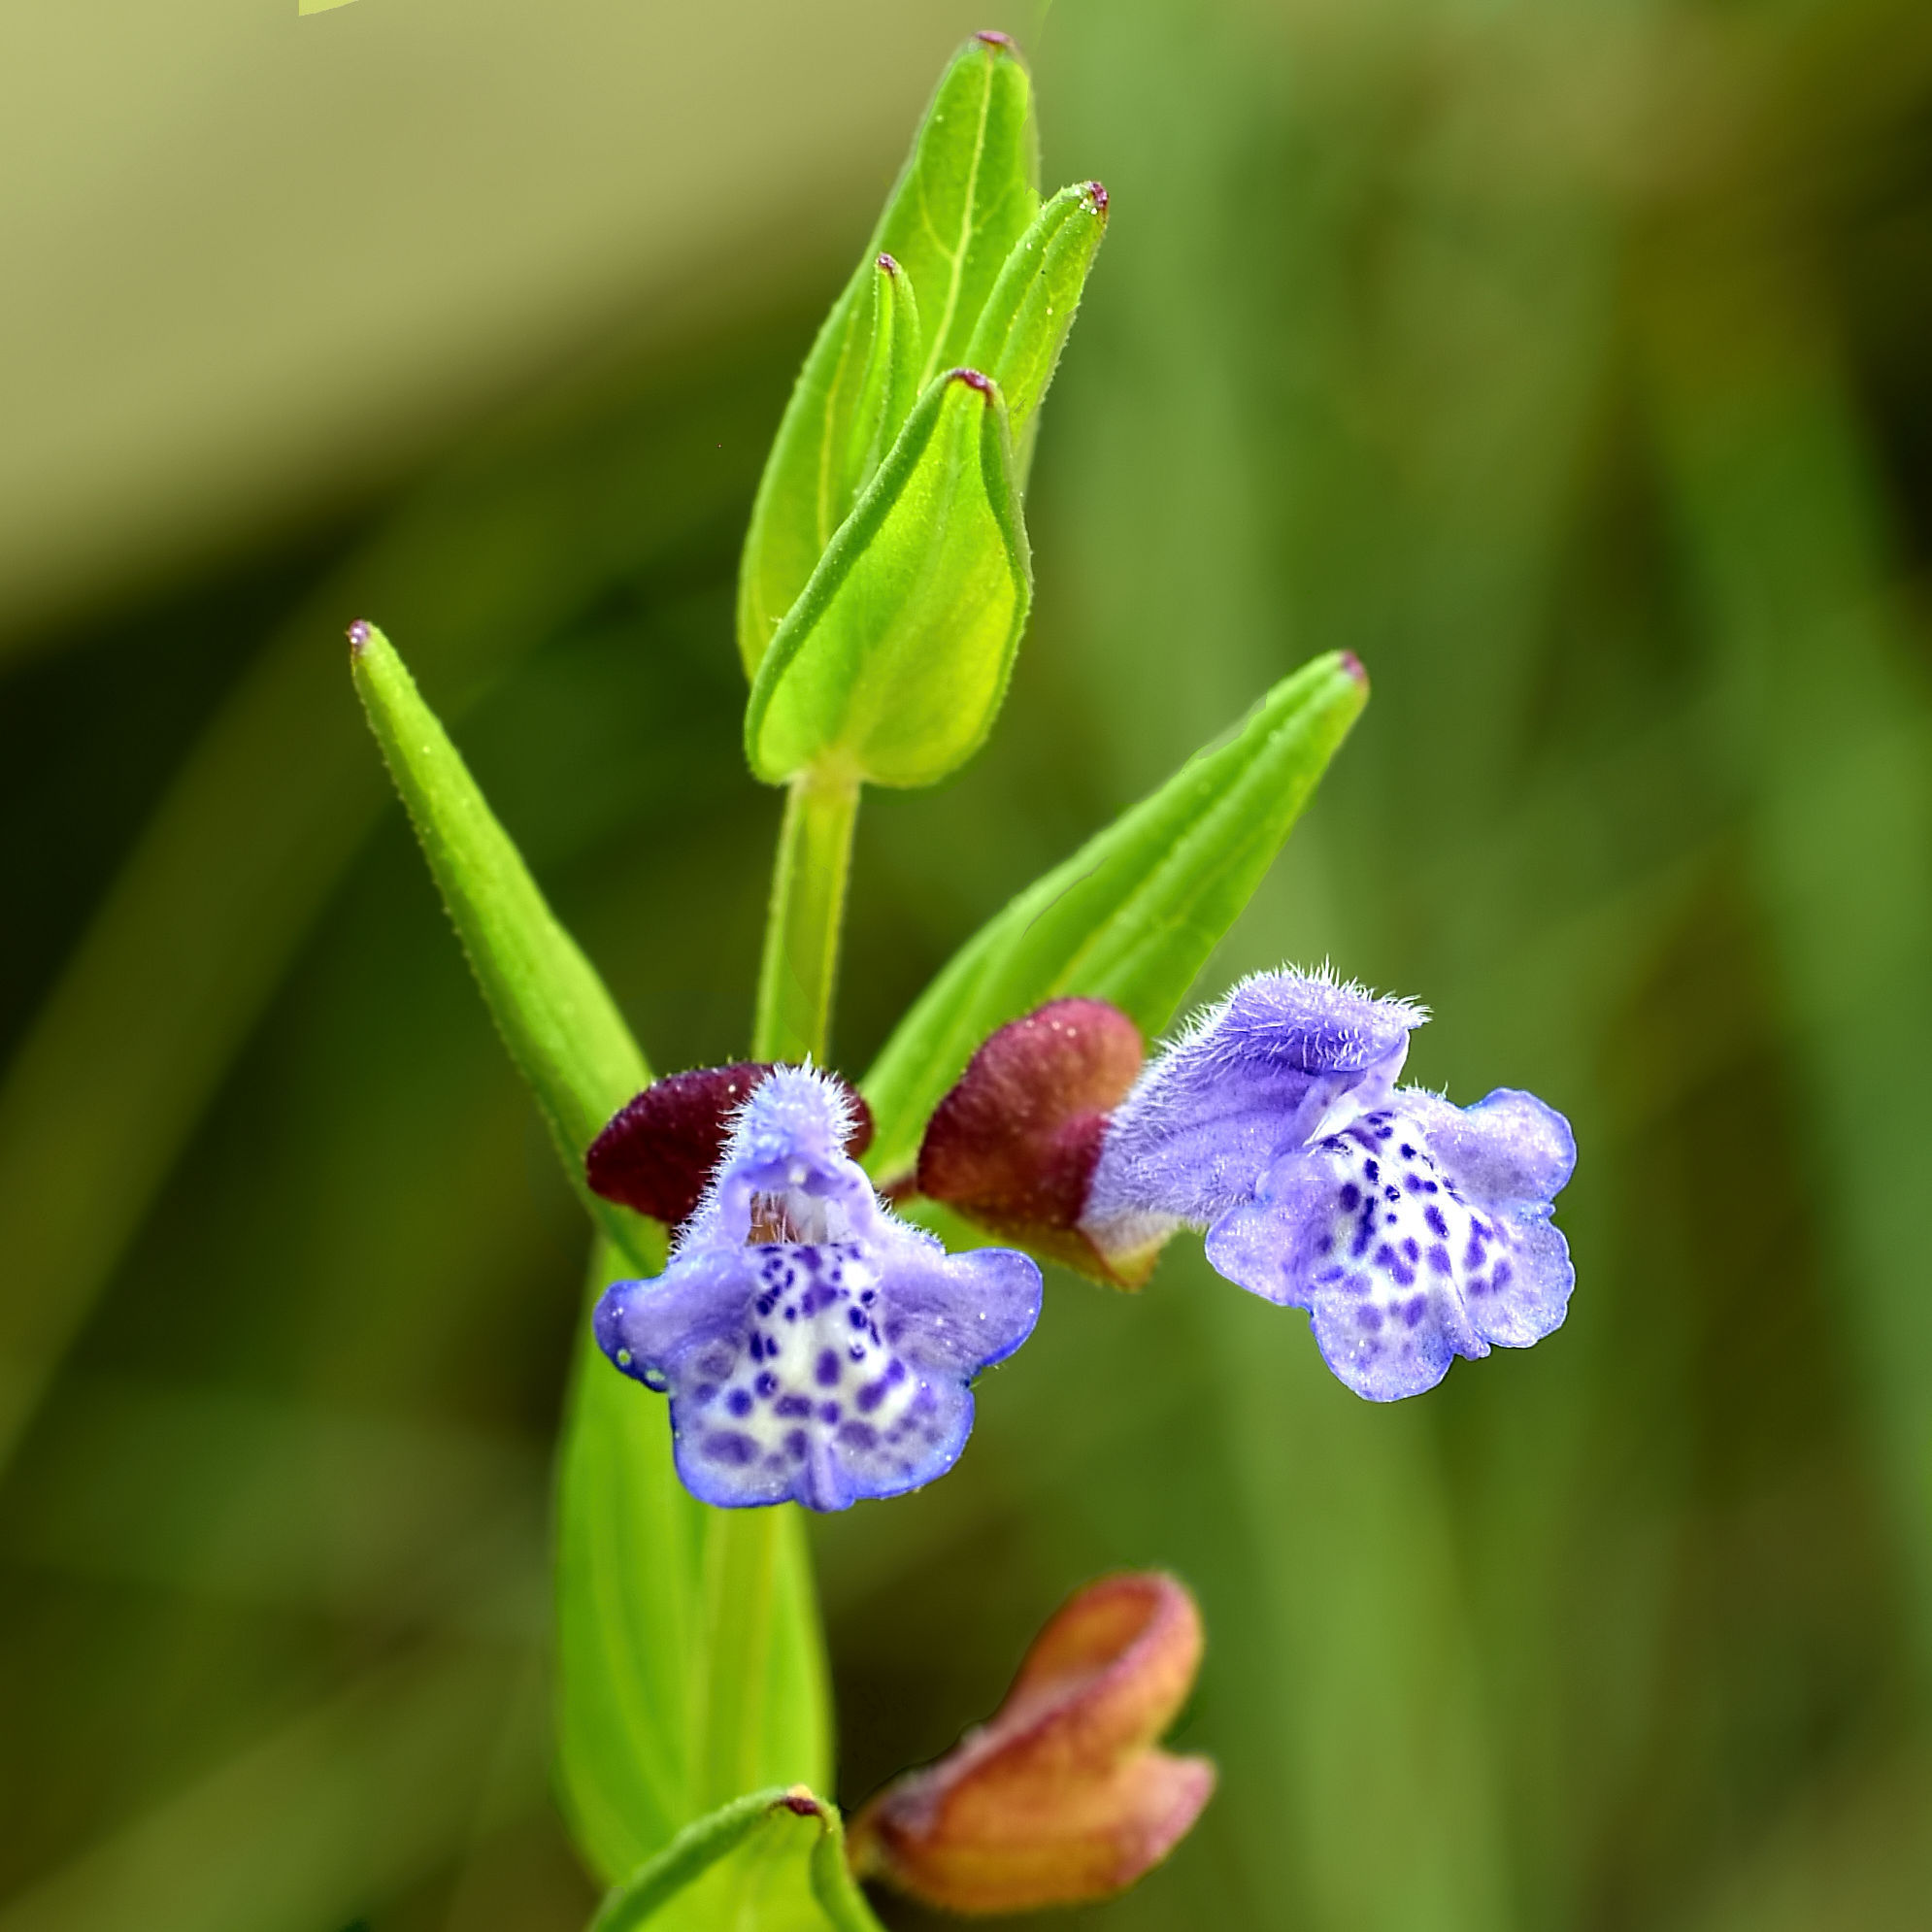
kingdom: Plantae
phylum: Tracheophyta
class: Magnoliopsida
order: Lamiales
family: Lamiaceae
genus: Scutellaria
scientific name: Scutellaria parvula
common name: Little scullcap
